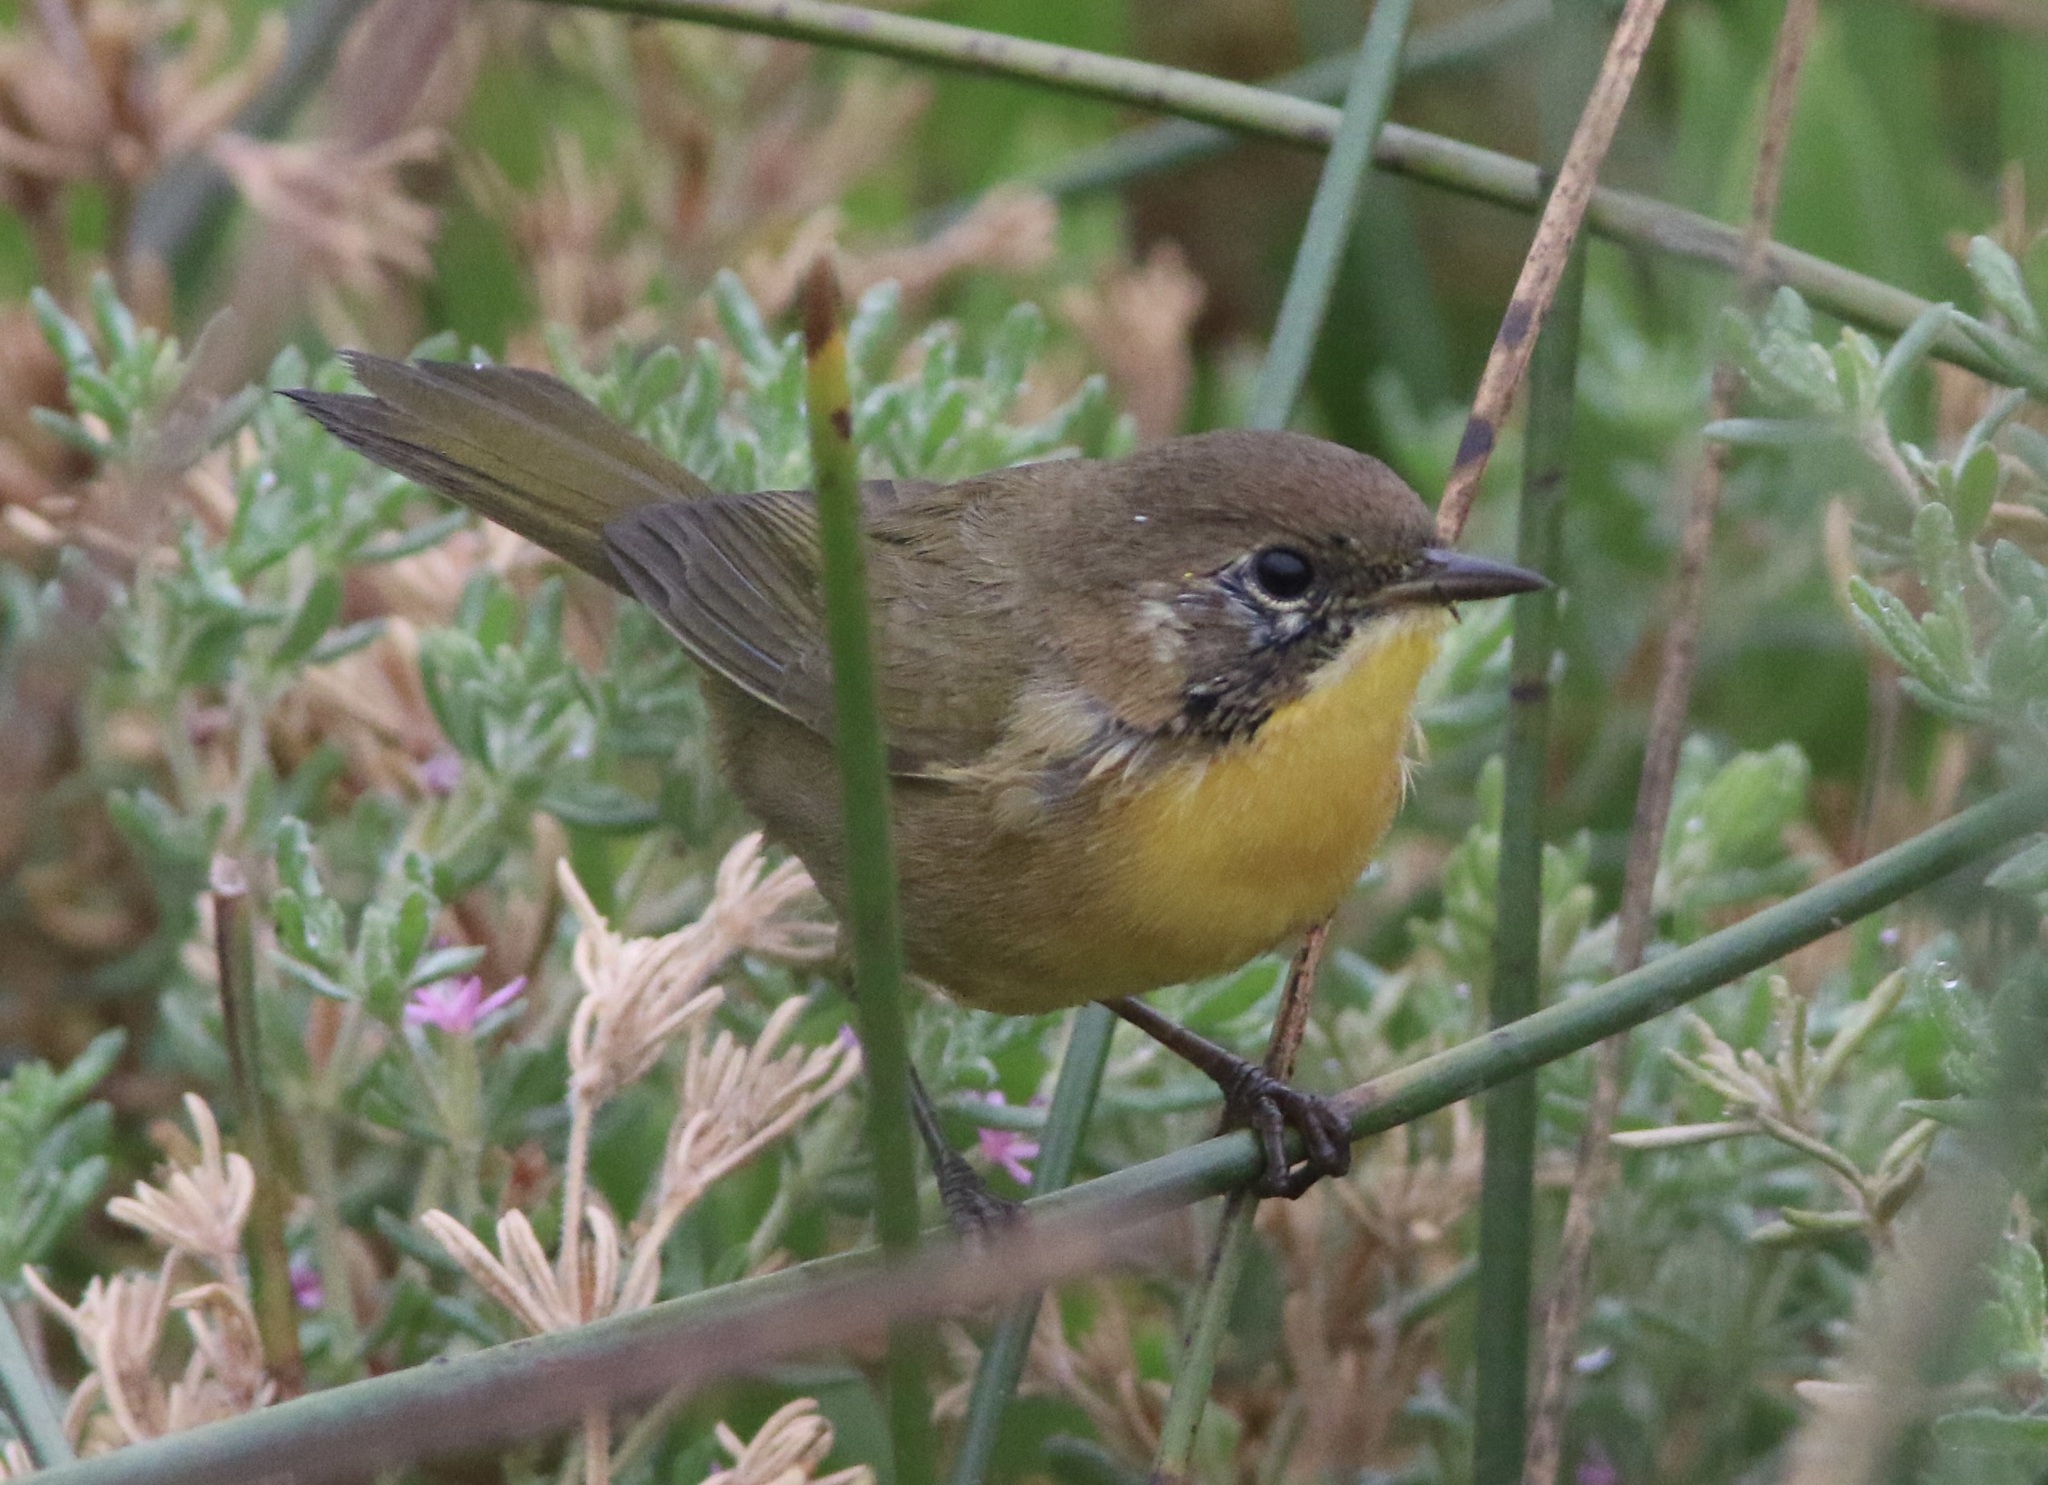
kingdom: Animalia
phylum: Chordata
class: Aves
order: Passeriformes
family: Parulidae
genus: Geothlypis
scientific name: Geothlypis trichas
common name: Common yellowthroat
